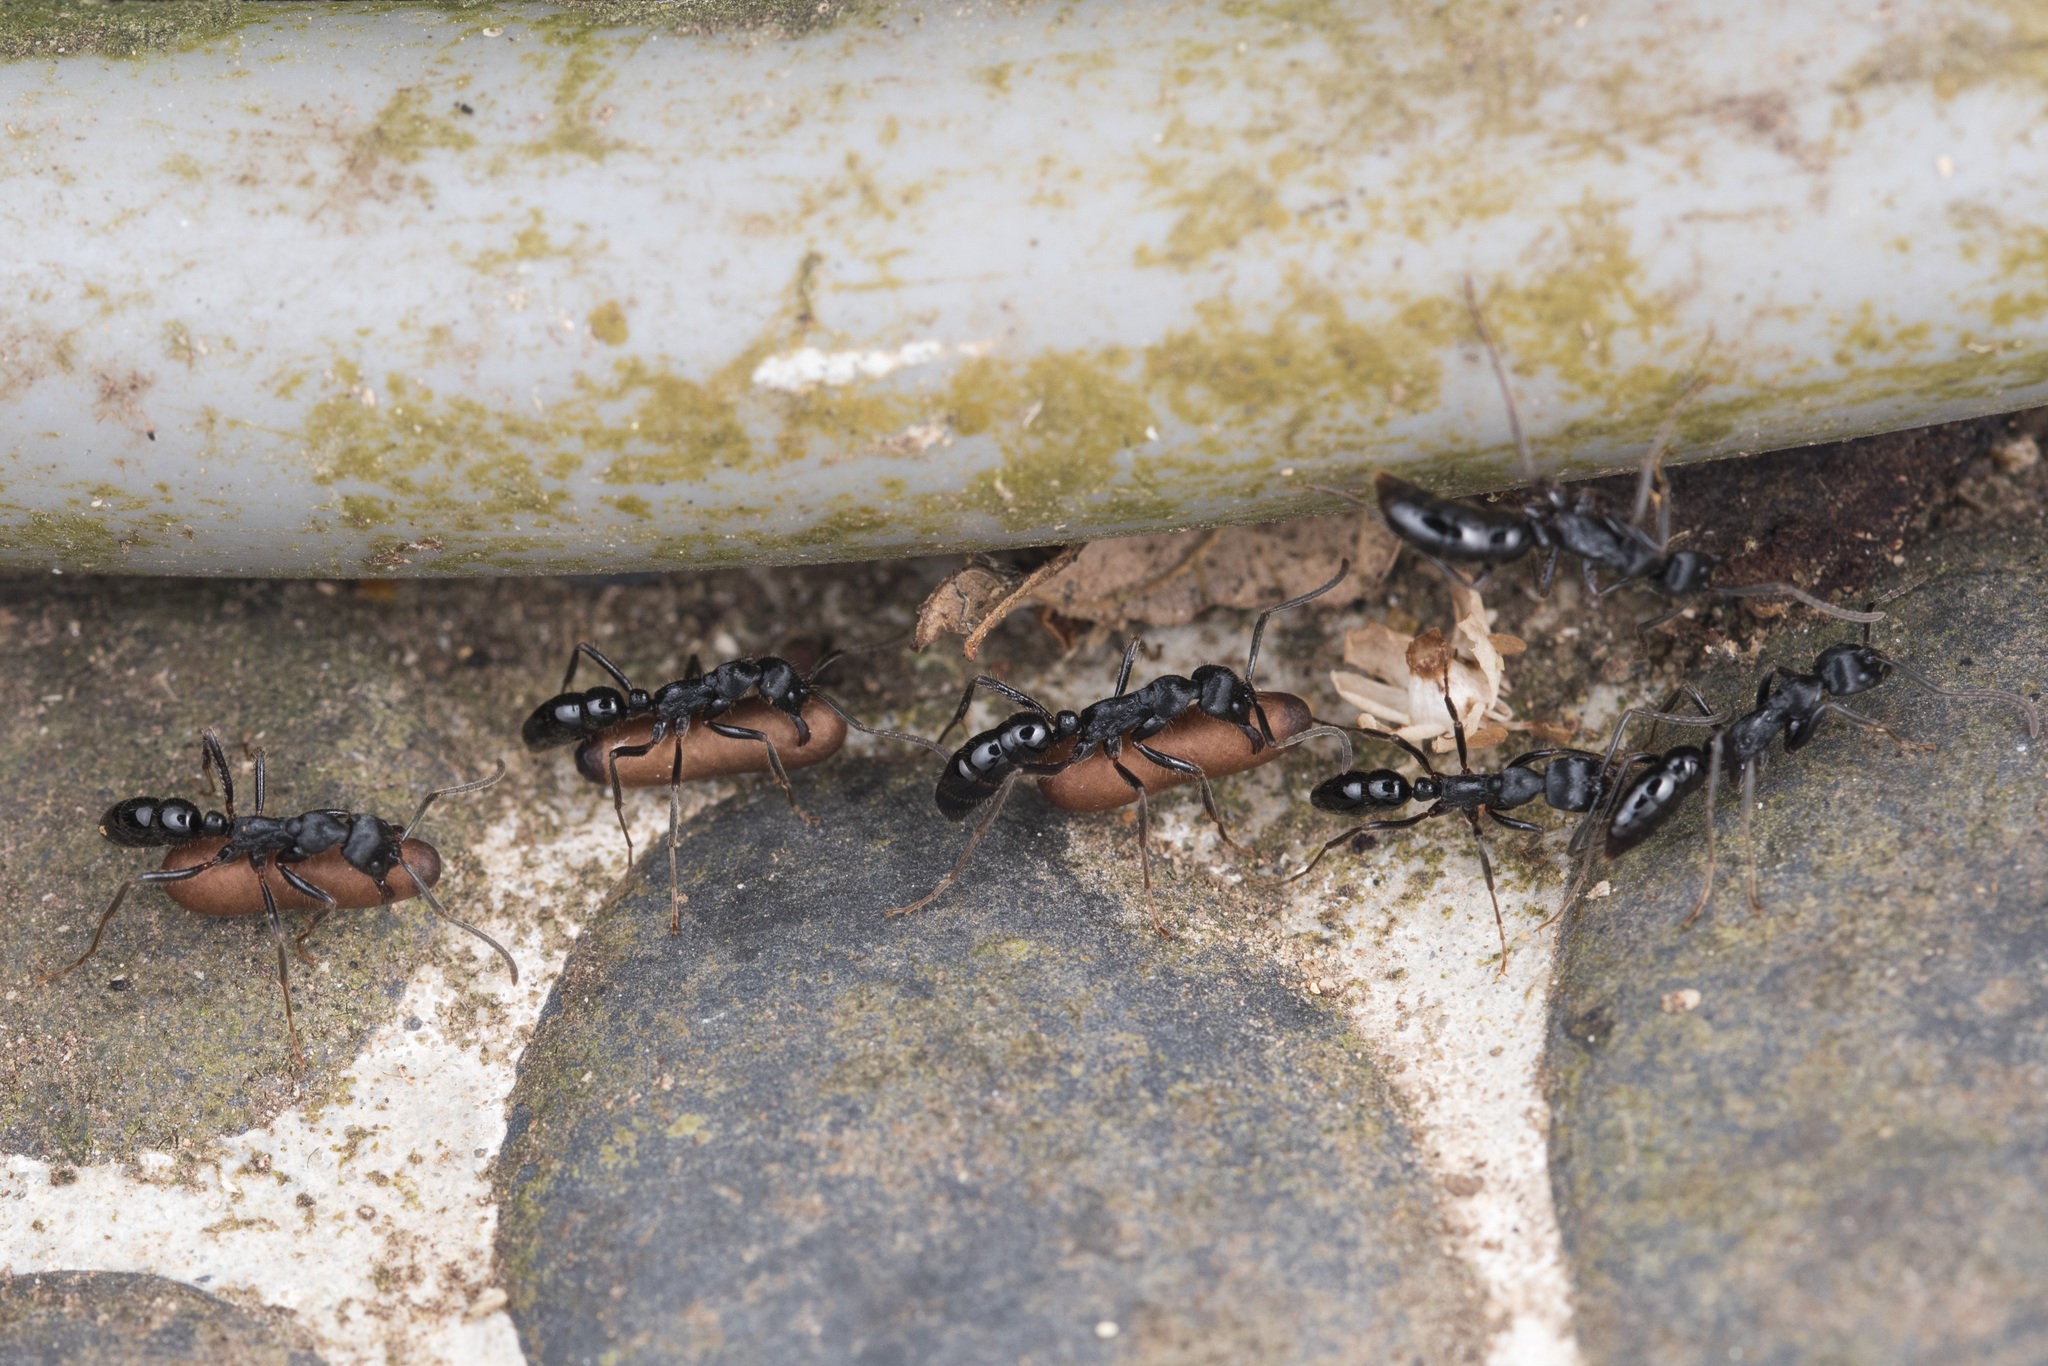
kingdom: Animalia
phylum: Arthropoda
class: Insecta
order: Hymenoptera
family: Formicidae
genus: Leptogenys
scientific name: Leptogenys kitteli
